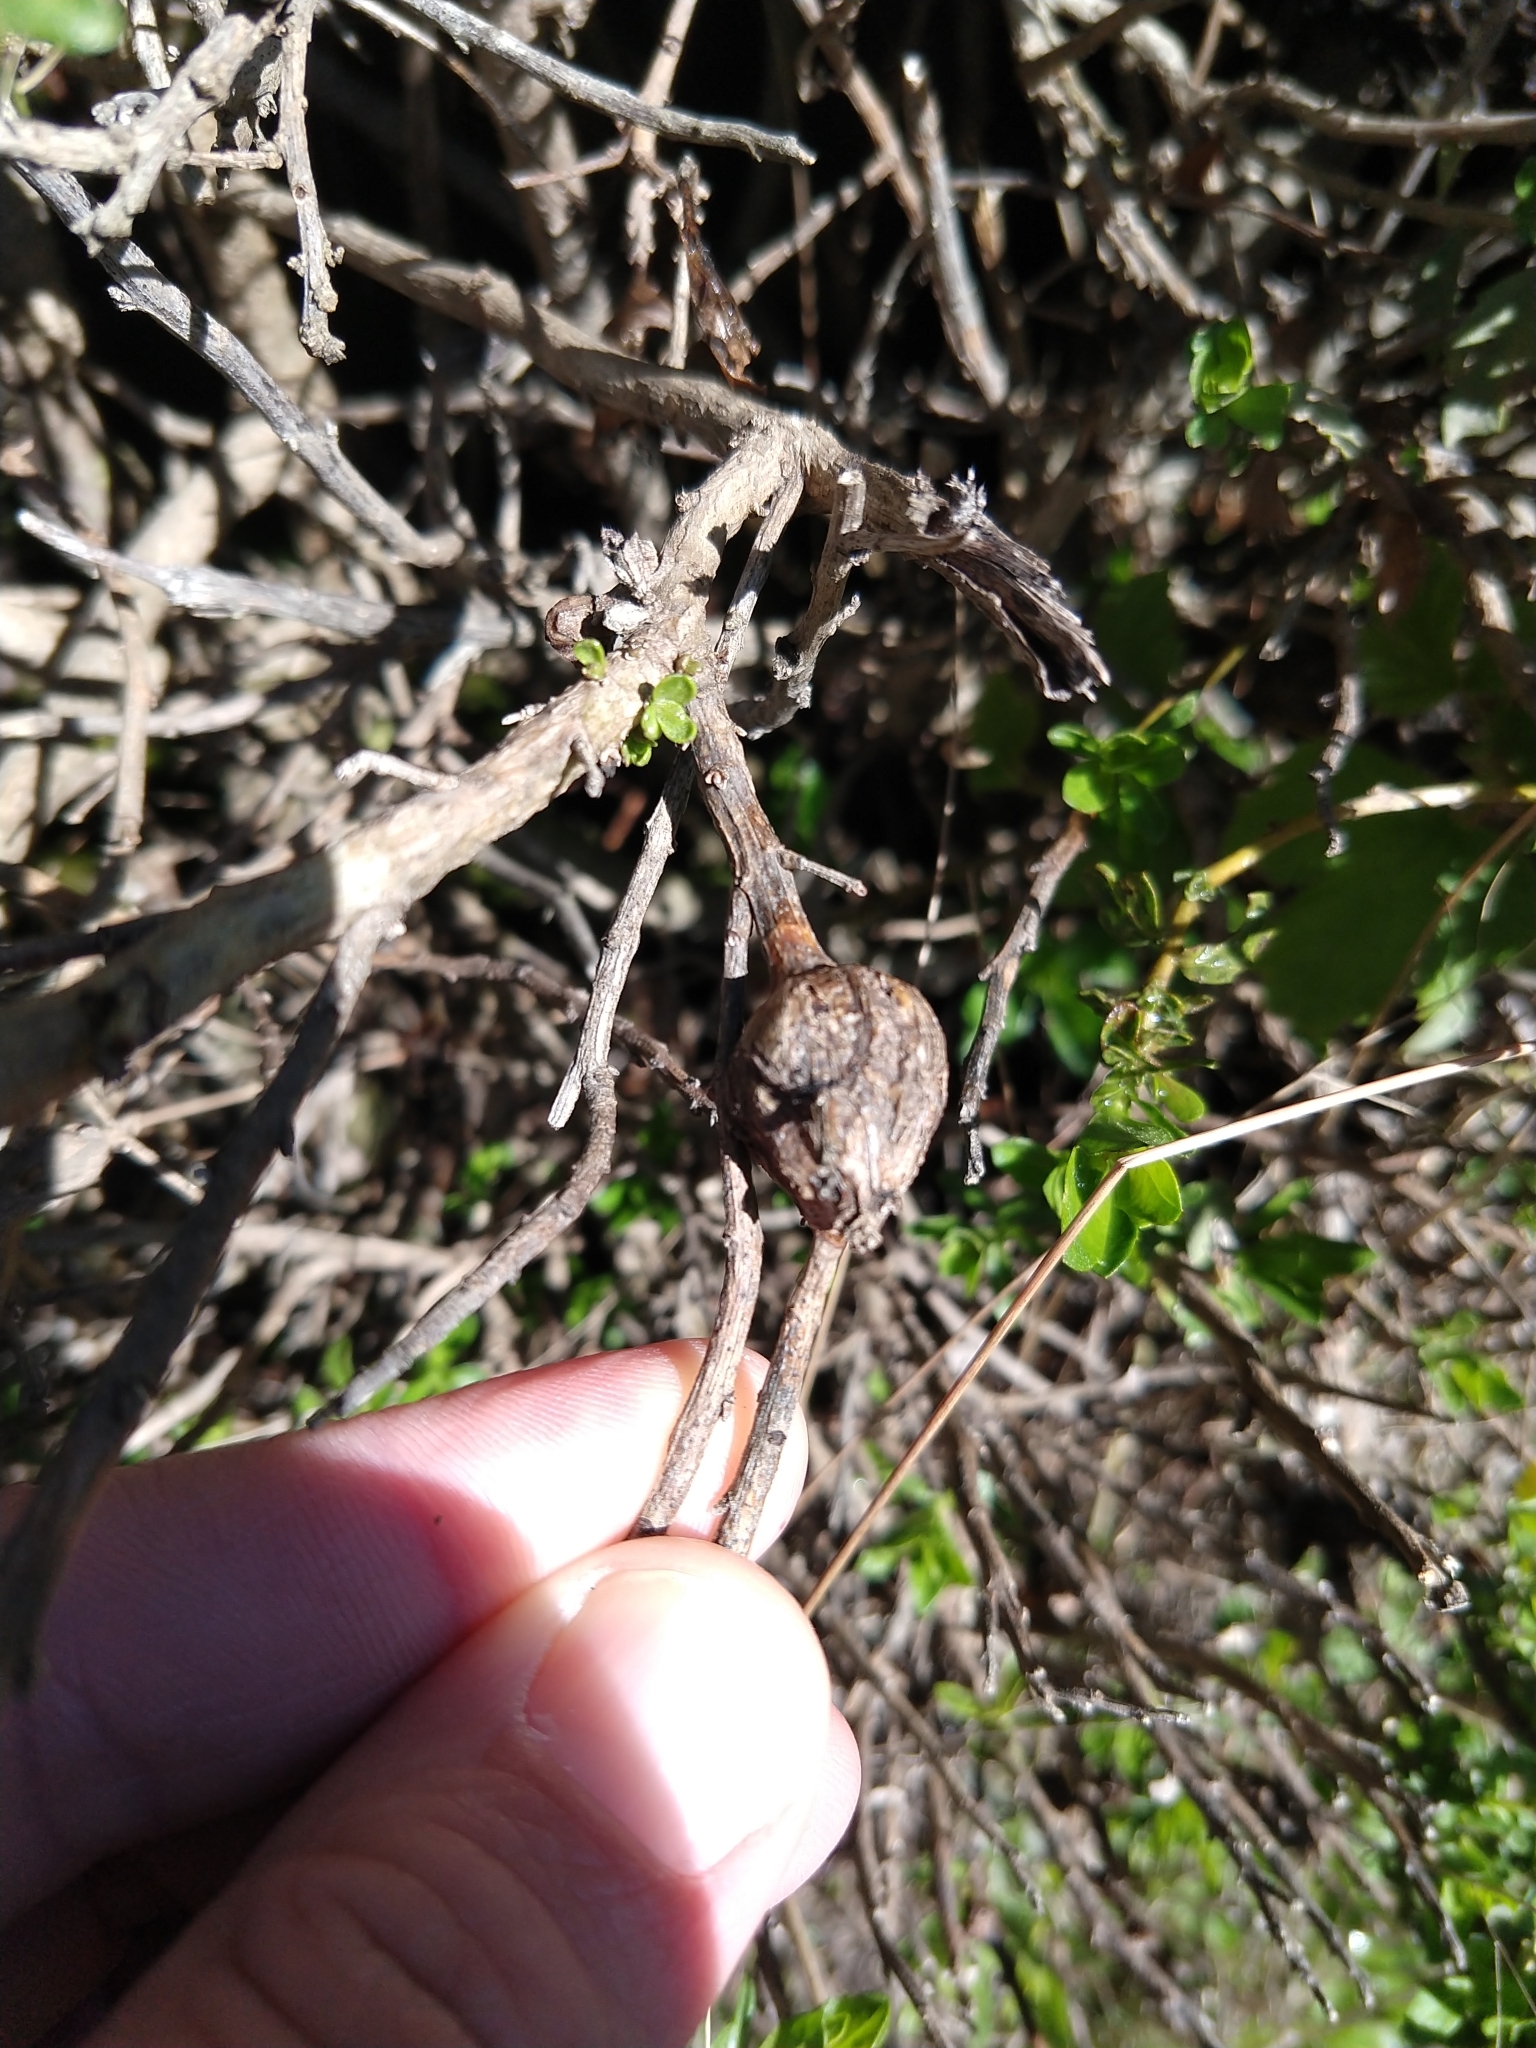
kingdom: Animalia
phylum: Arthropoda
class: Insecta
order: Lepidoptera
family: Gelechiidae
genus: Gnorimoschema
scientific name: Gnorimoschema baccharisella
